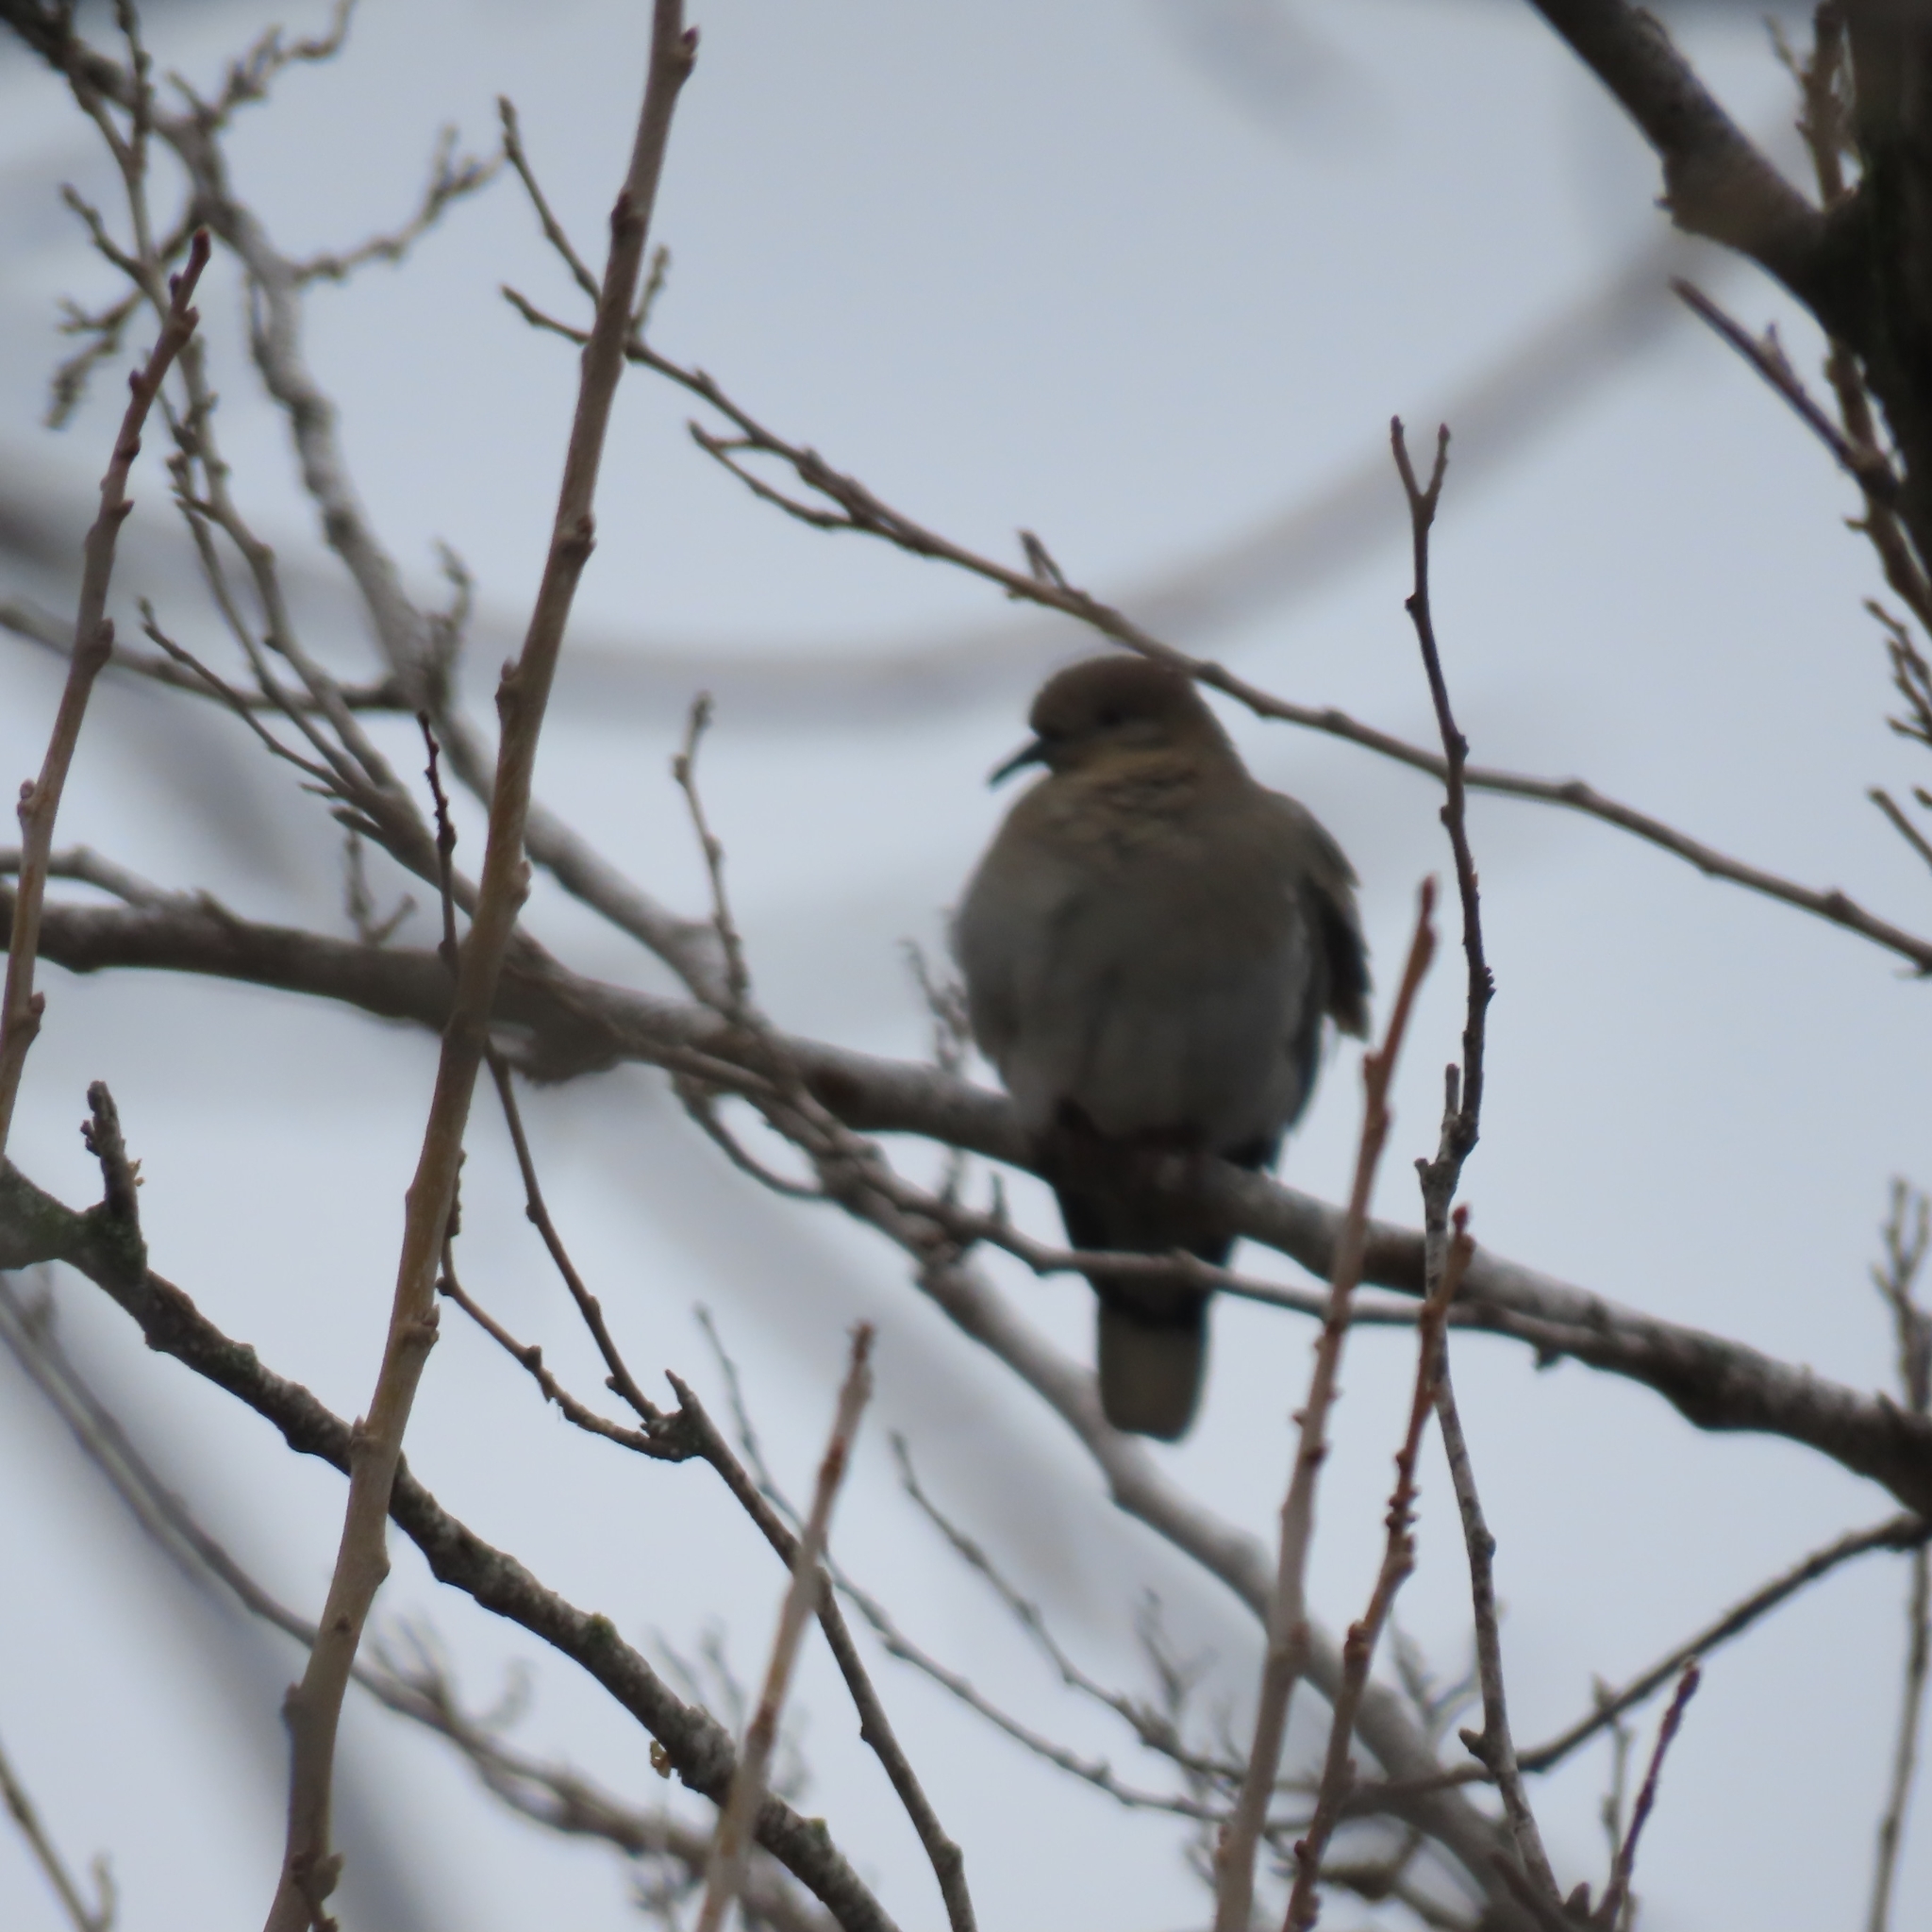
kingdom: Animalia
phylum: Chordata
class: Aves
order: Columbiformes
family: Columbidae
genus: Zenaida
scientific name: Zenaida asiatica
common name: White-winged dove
